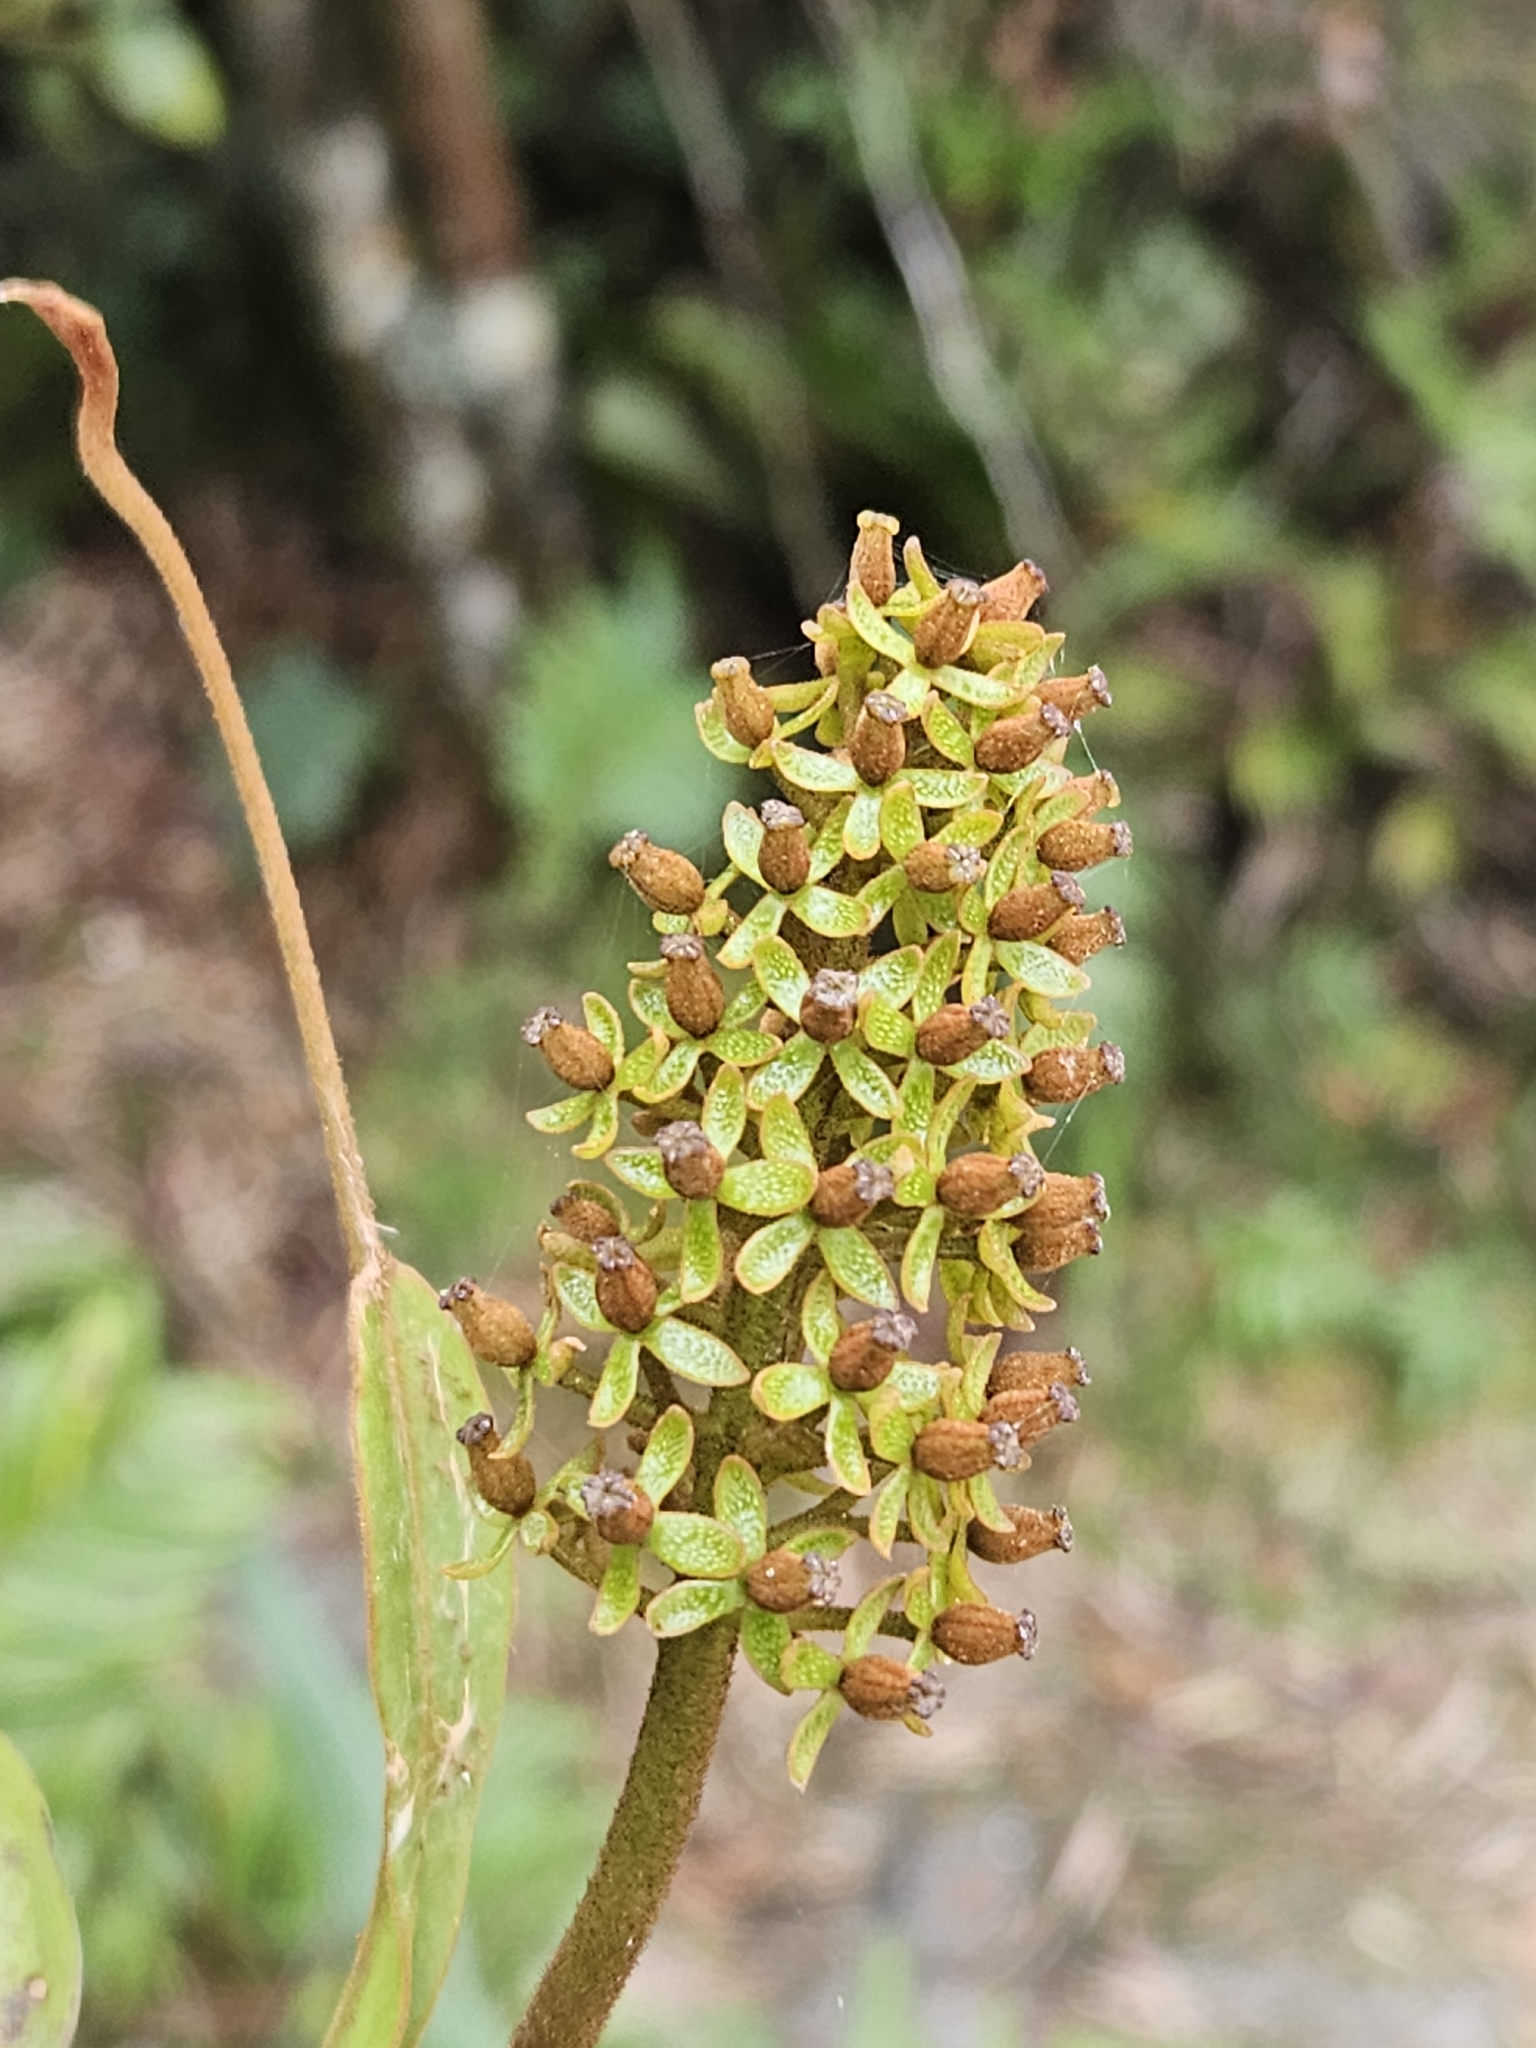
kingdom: Plantae
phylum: Tracheophyta
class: Magnoliopsida
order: Caryophyllales
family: Nepenthaceae
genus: Nepenthes
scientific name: Nepenthes fusca
